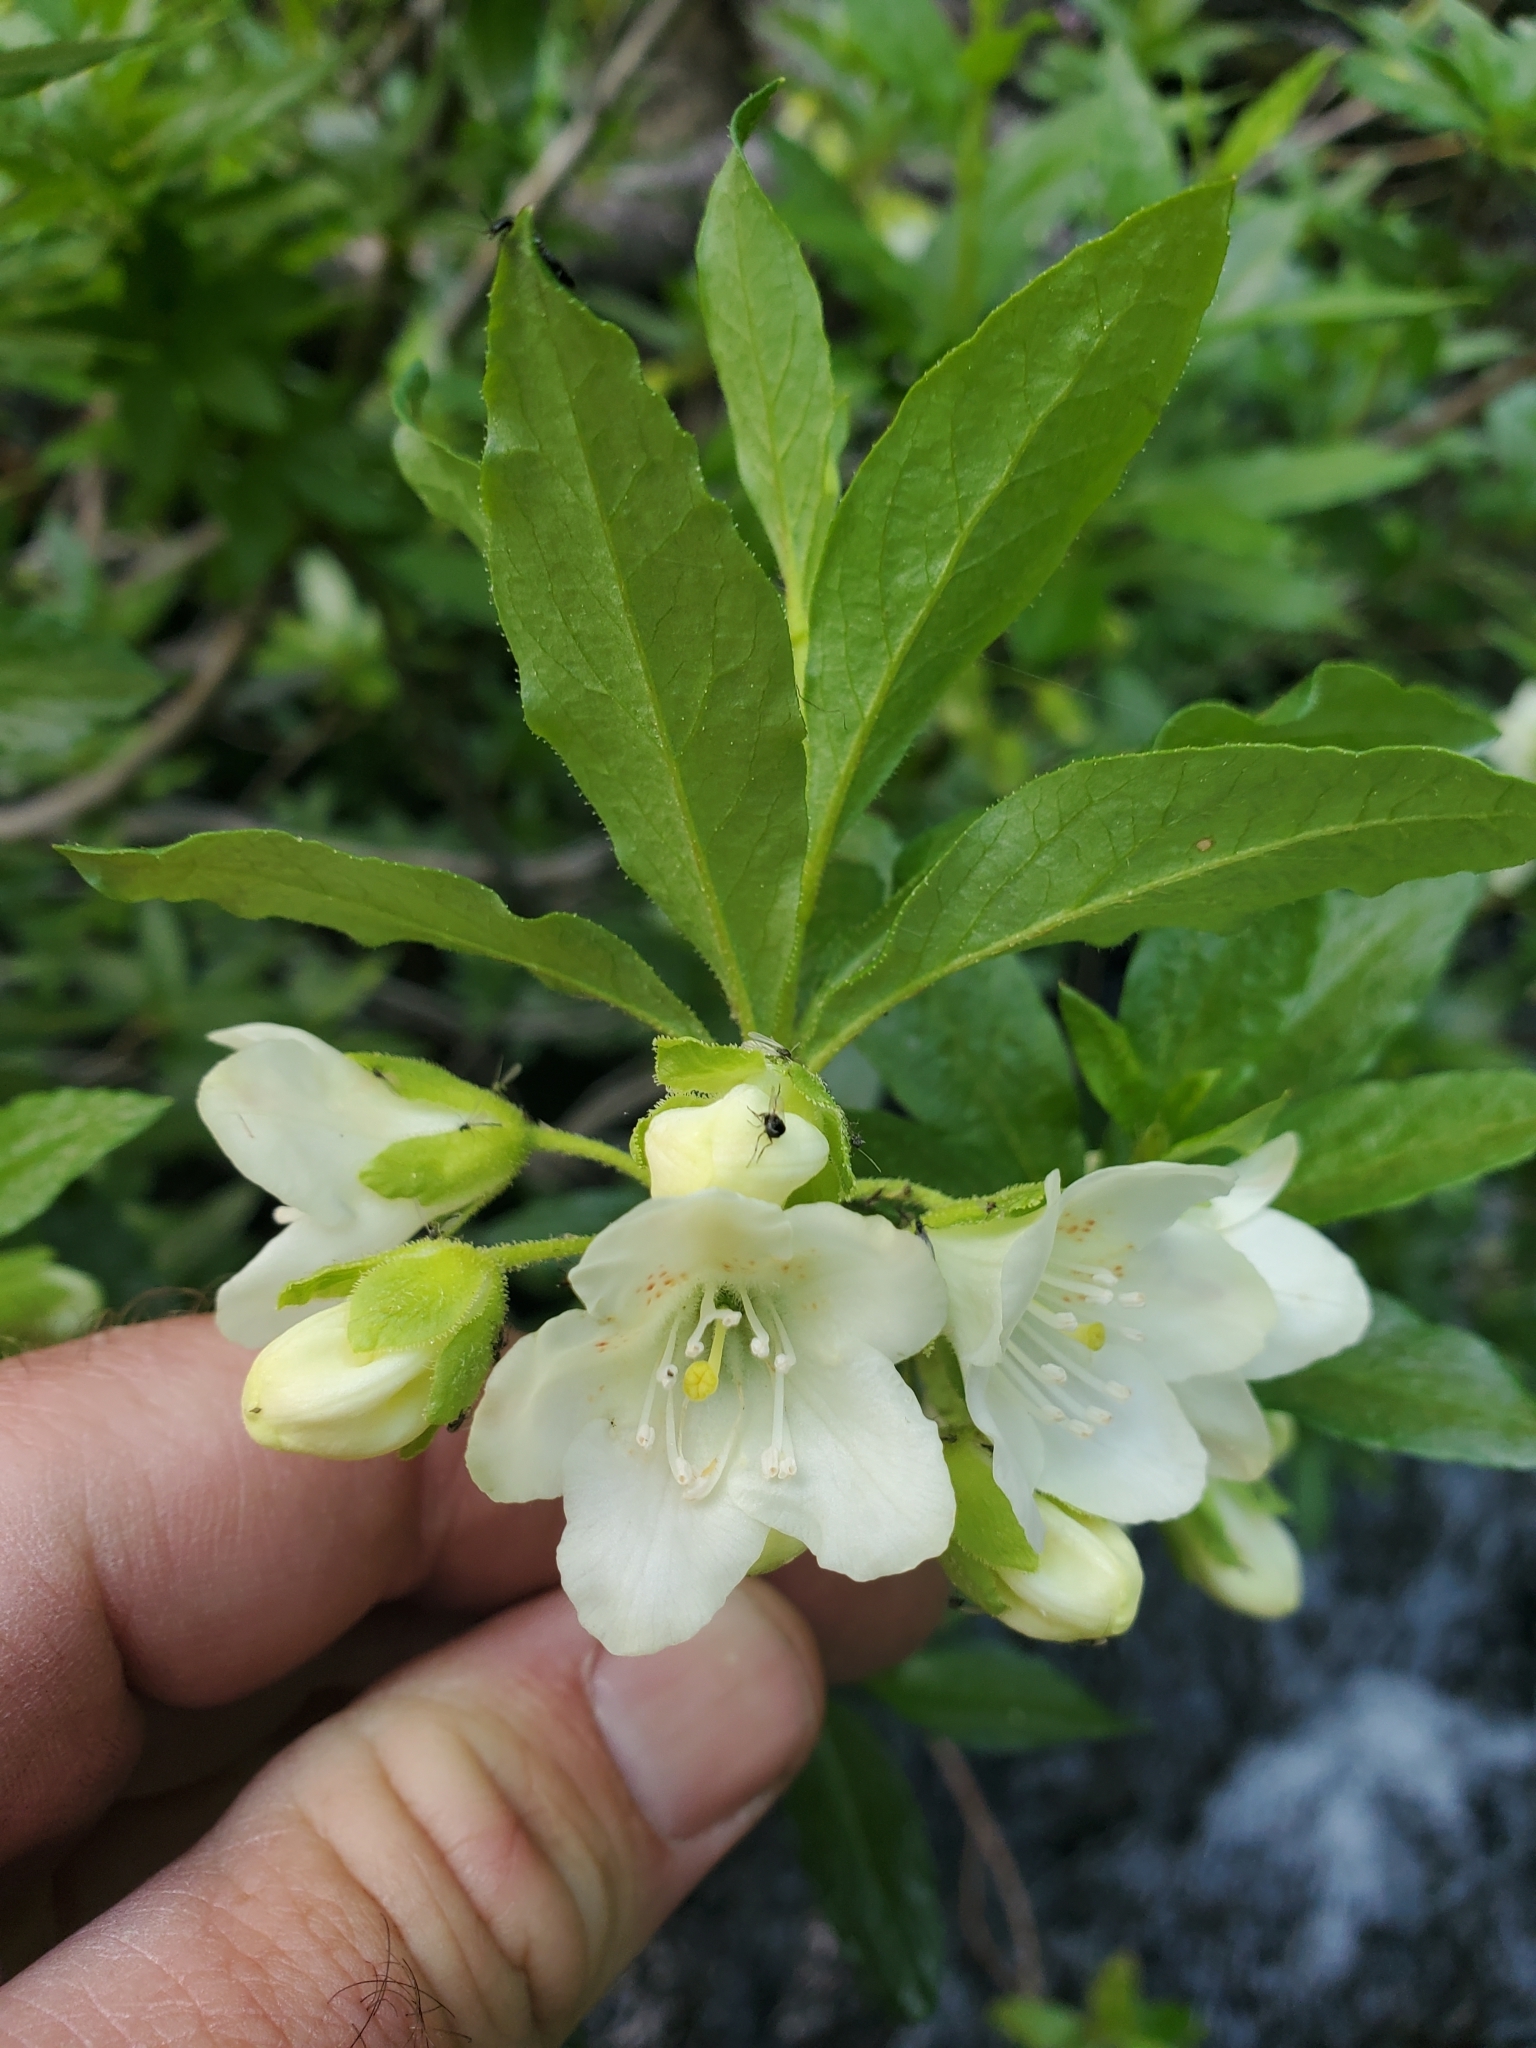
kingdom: Plantae
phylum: Tracheophyta
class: Magnoliopsida
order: Ericales
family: Ericaceae
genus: Rhododendron
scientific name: Rhododendron albiflorum
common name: White rhododendron
